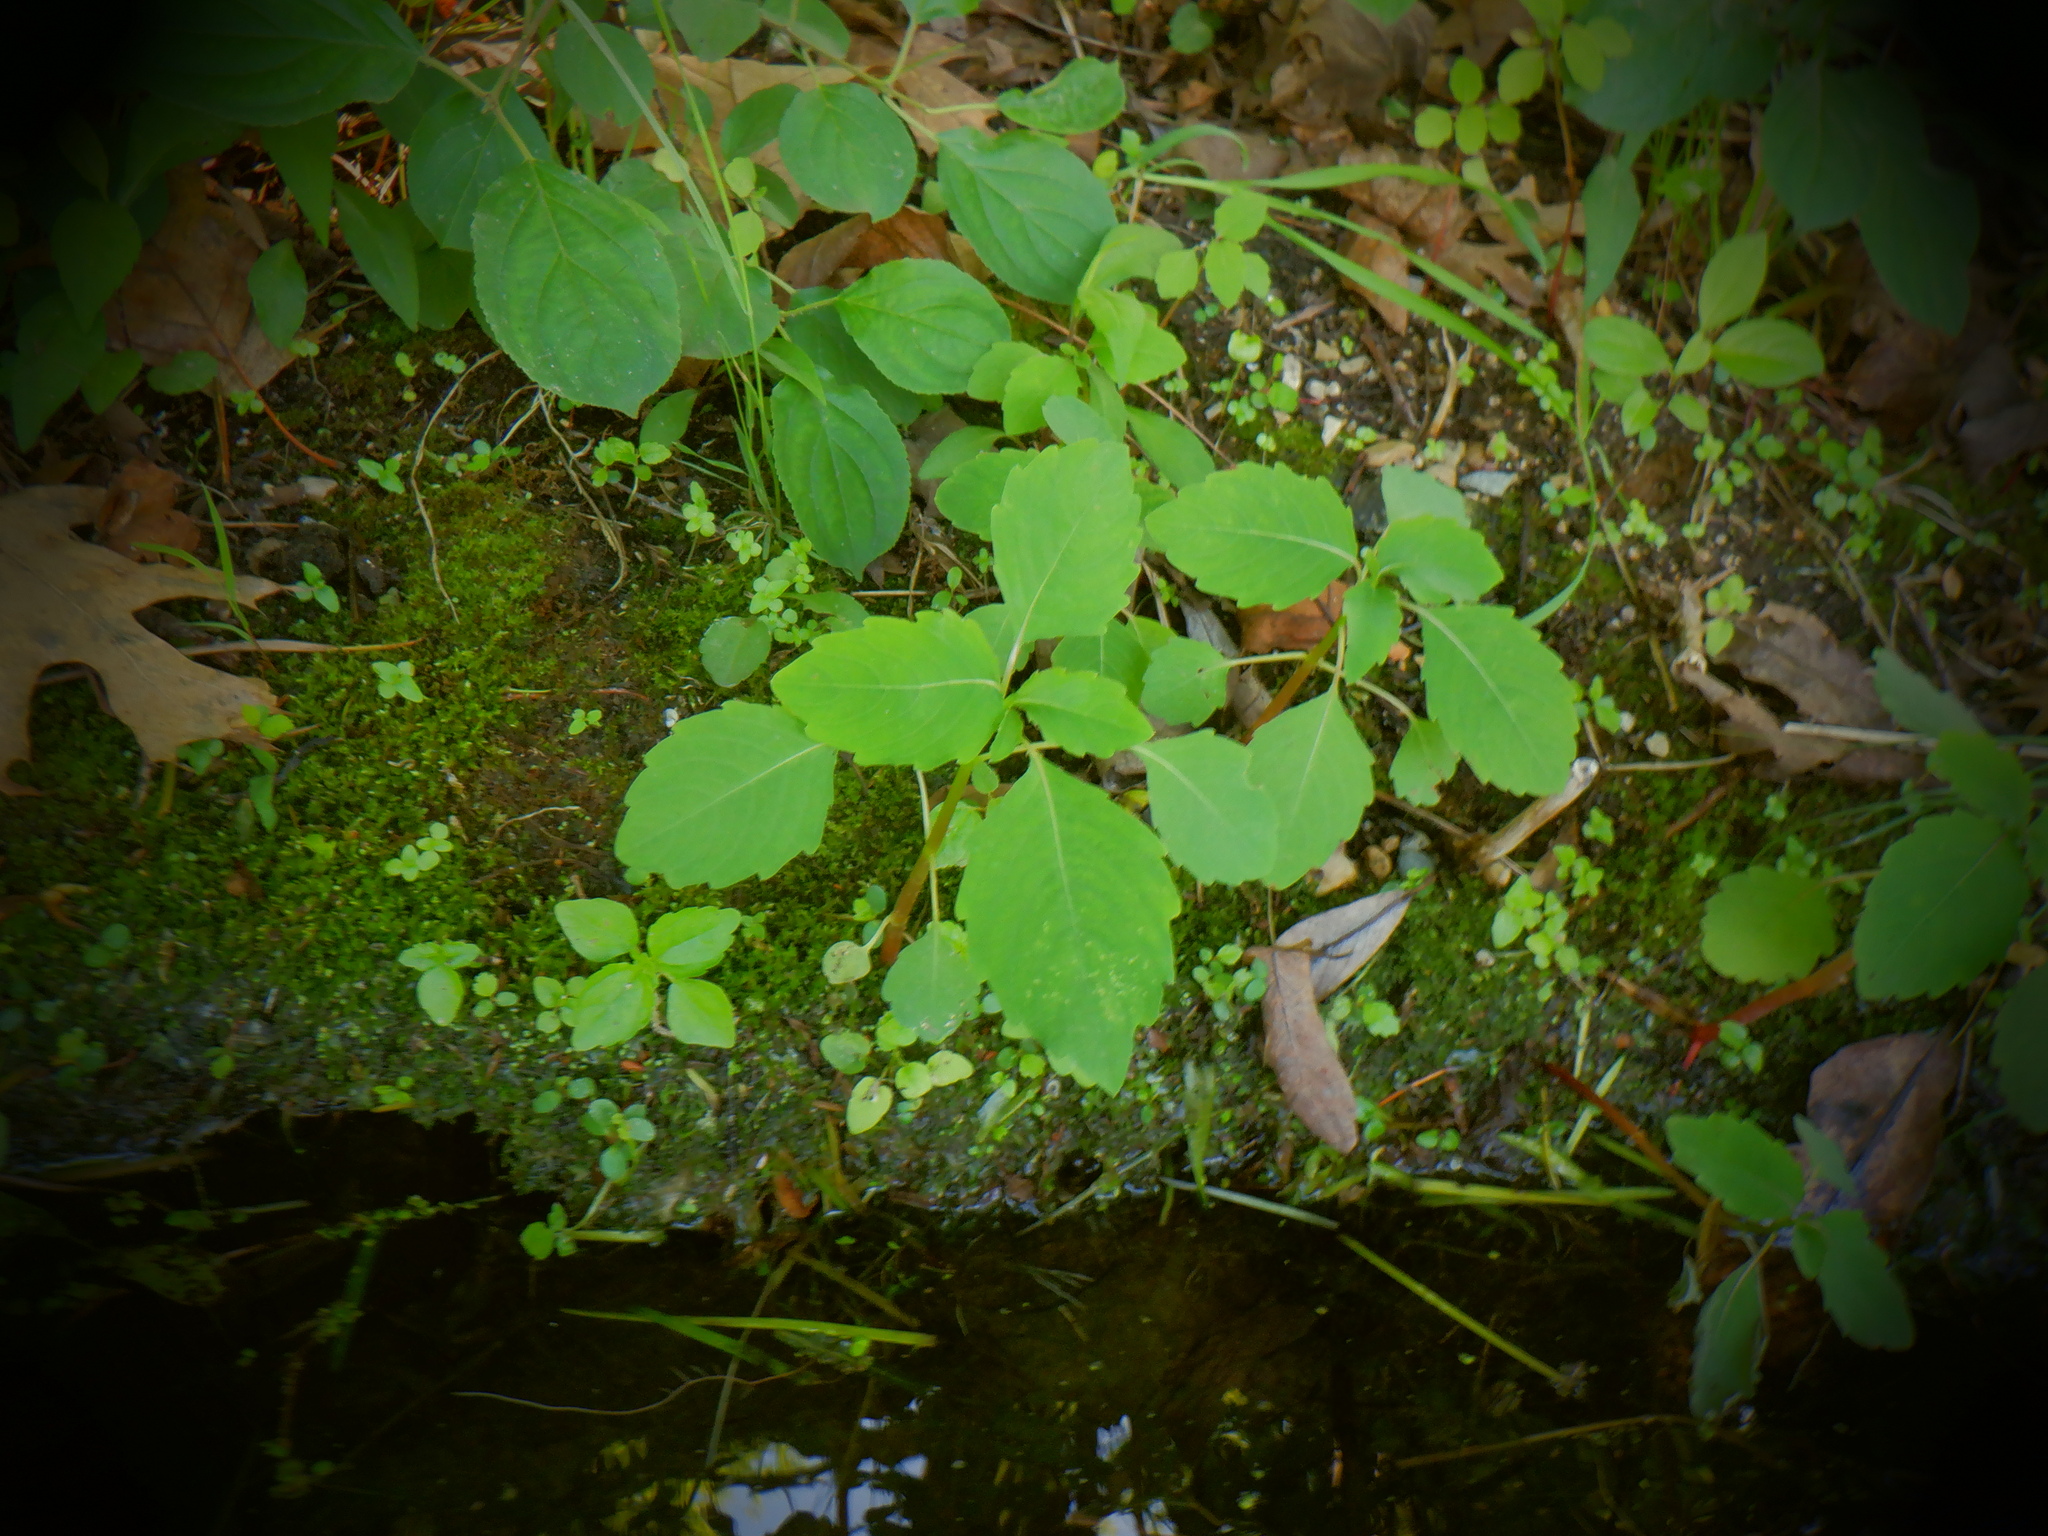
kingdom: Plantae
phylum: Tracheophyta
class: Magnoliopsida
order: Ericales
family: Balsaminaceae
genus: Impatiens
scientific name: Impatiens capensis
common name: Orange balsam
